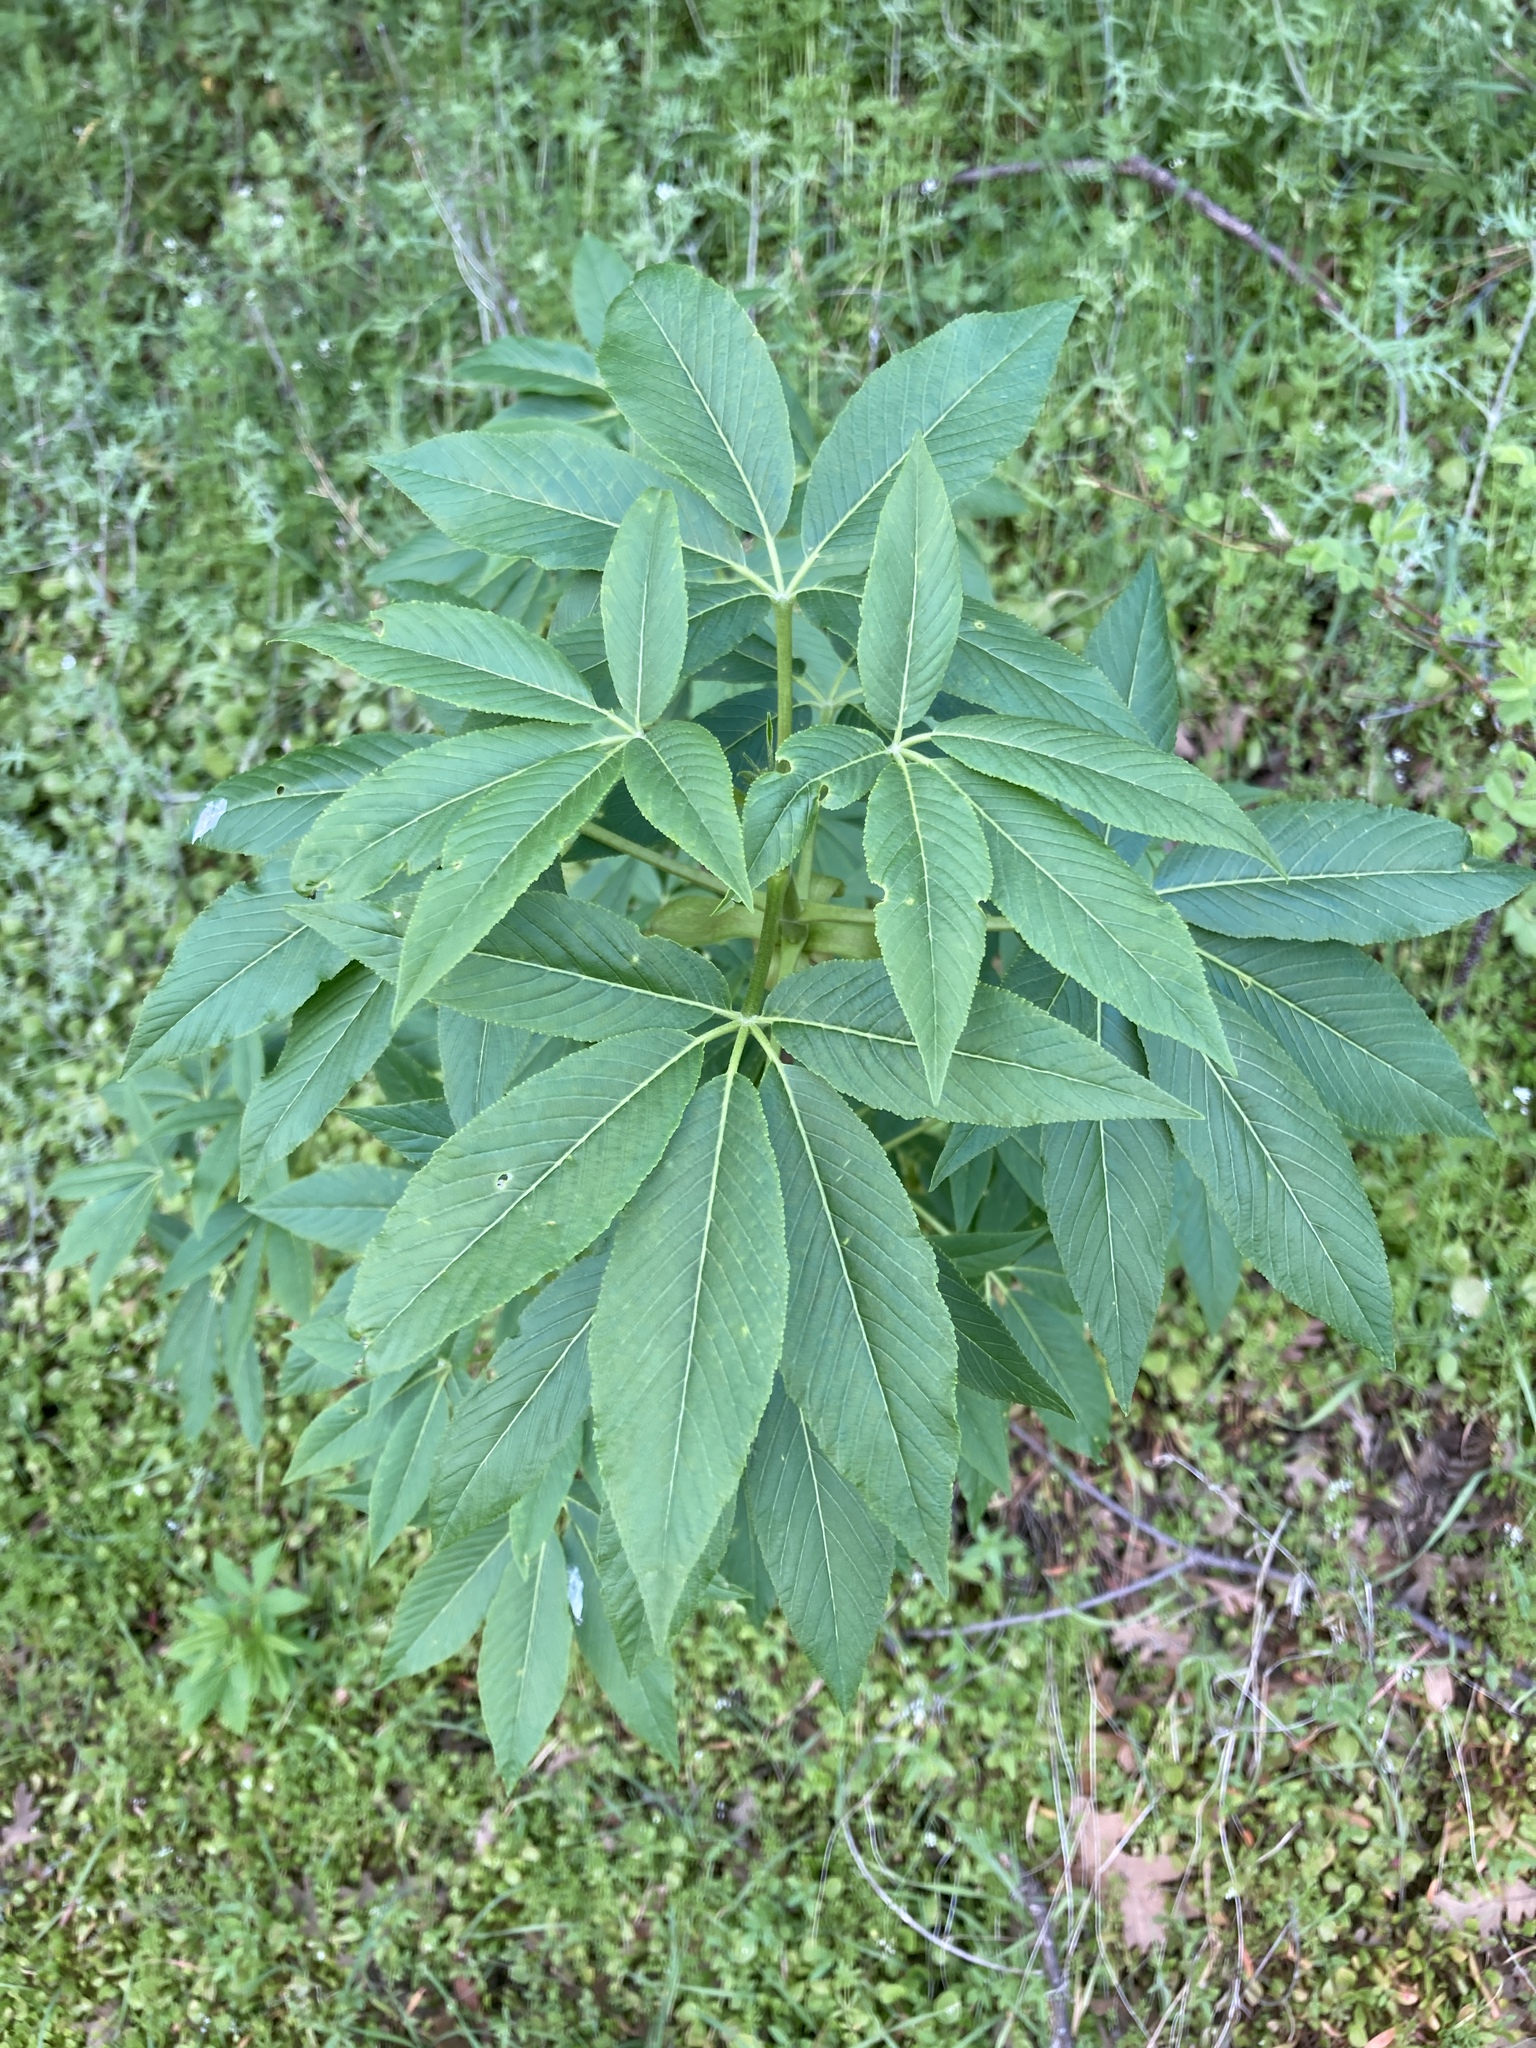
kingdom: Plantae
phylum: Tracheophyta
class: Magnoliopsida
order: Sapindales
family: Sapindaceae
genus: Aesculus
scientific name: Aesculus californica
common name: California buckeye
